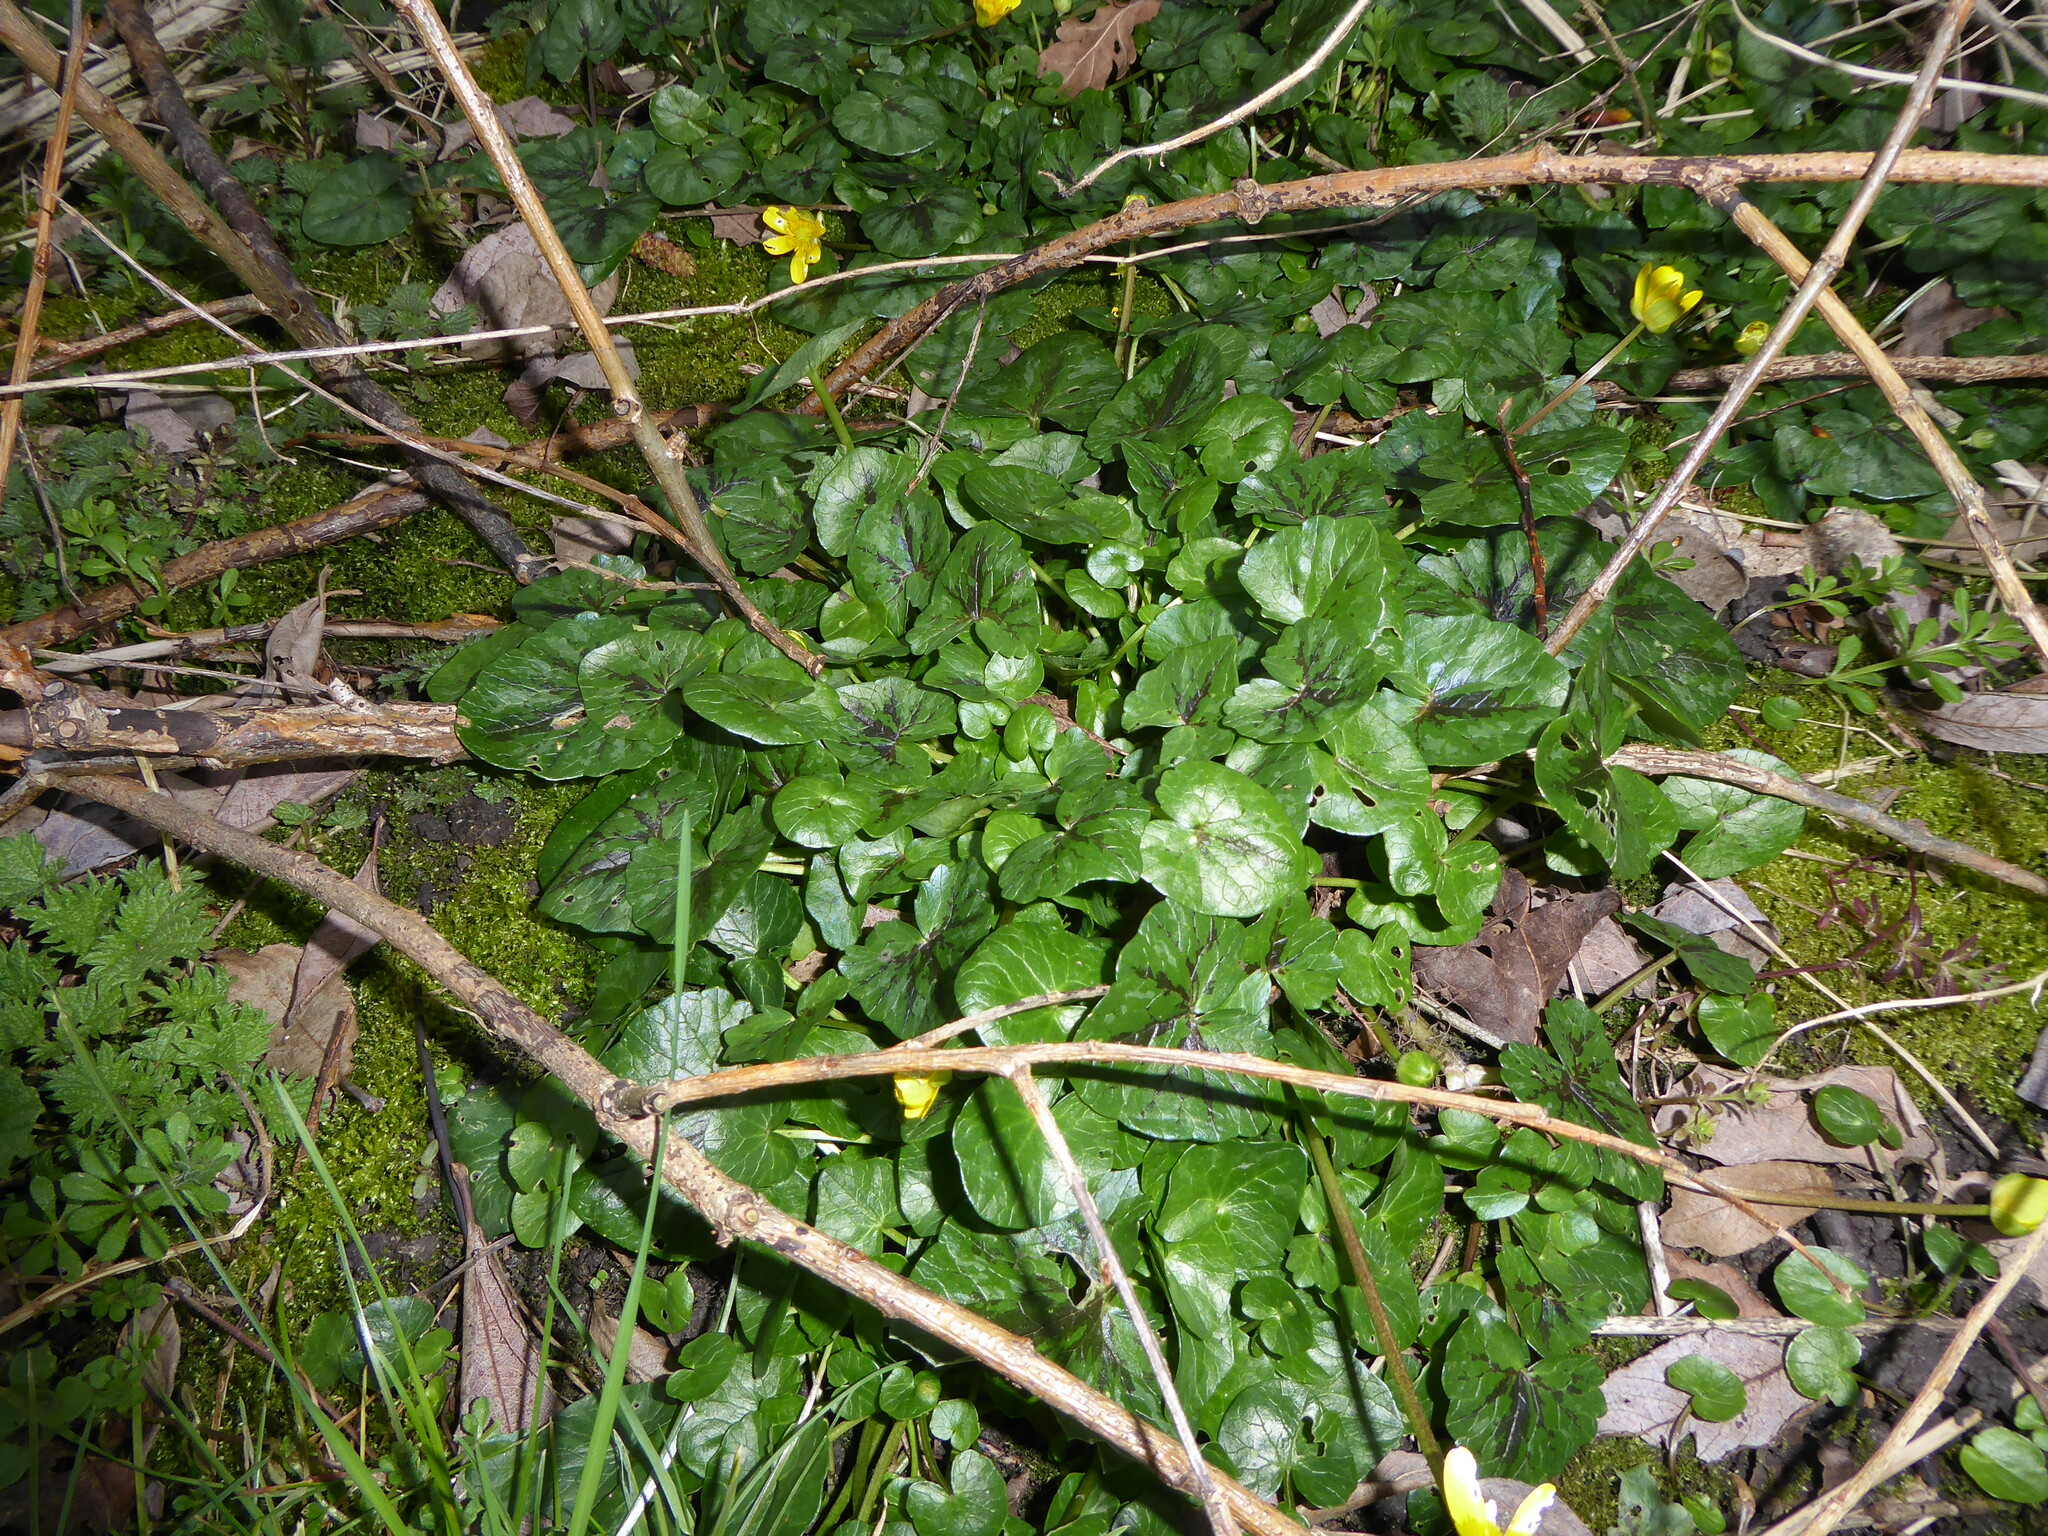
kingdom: Plantae
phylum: Tracheophyta
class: Magnoliopsida
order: Ranunculales
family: Ranunculaceae
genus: Ficaria
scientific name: Ficaria verna
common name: Lesser celandine
